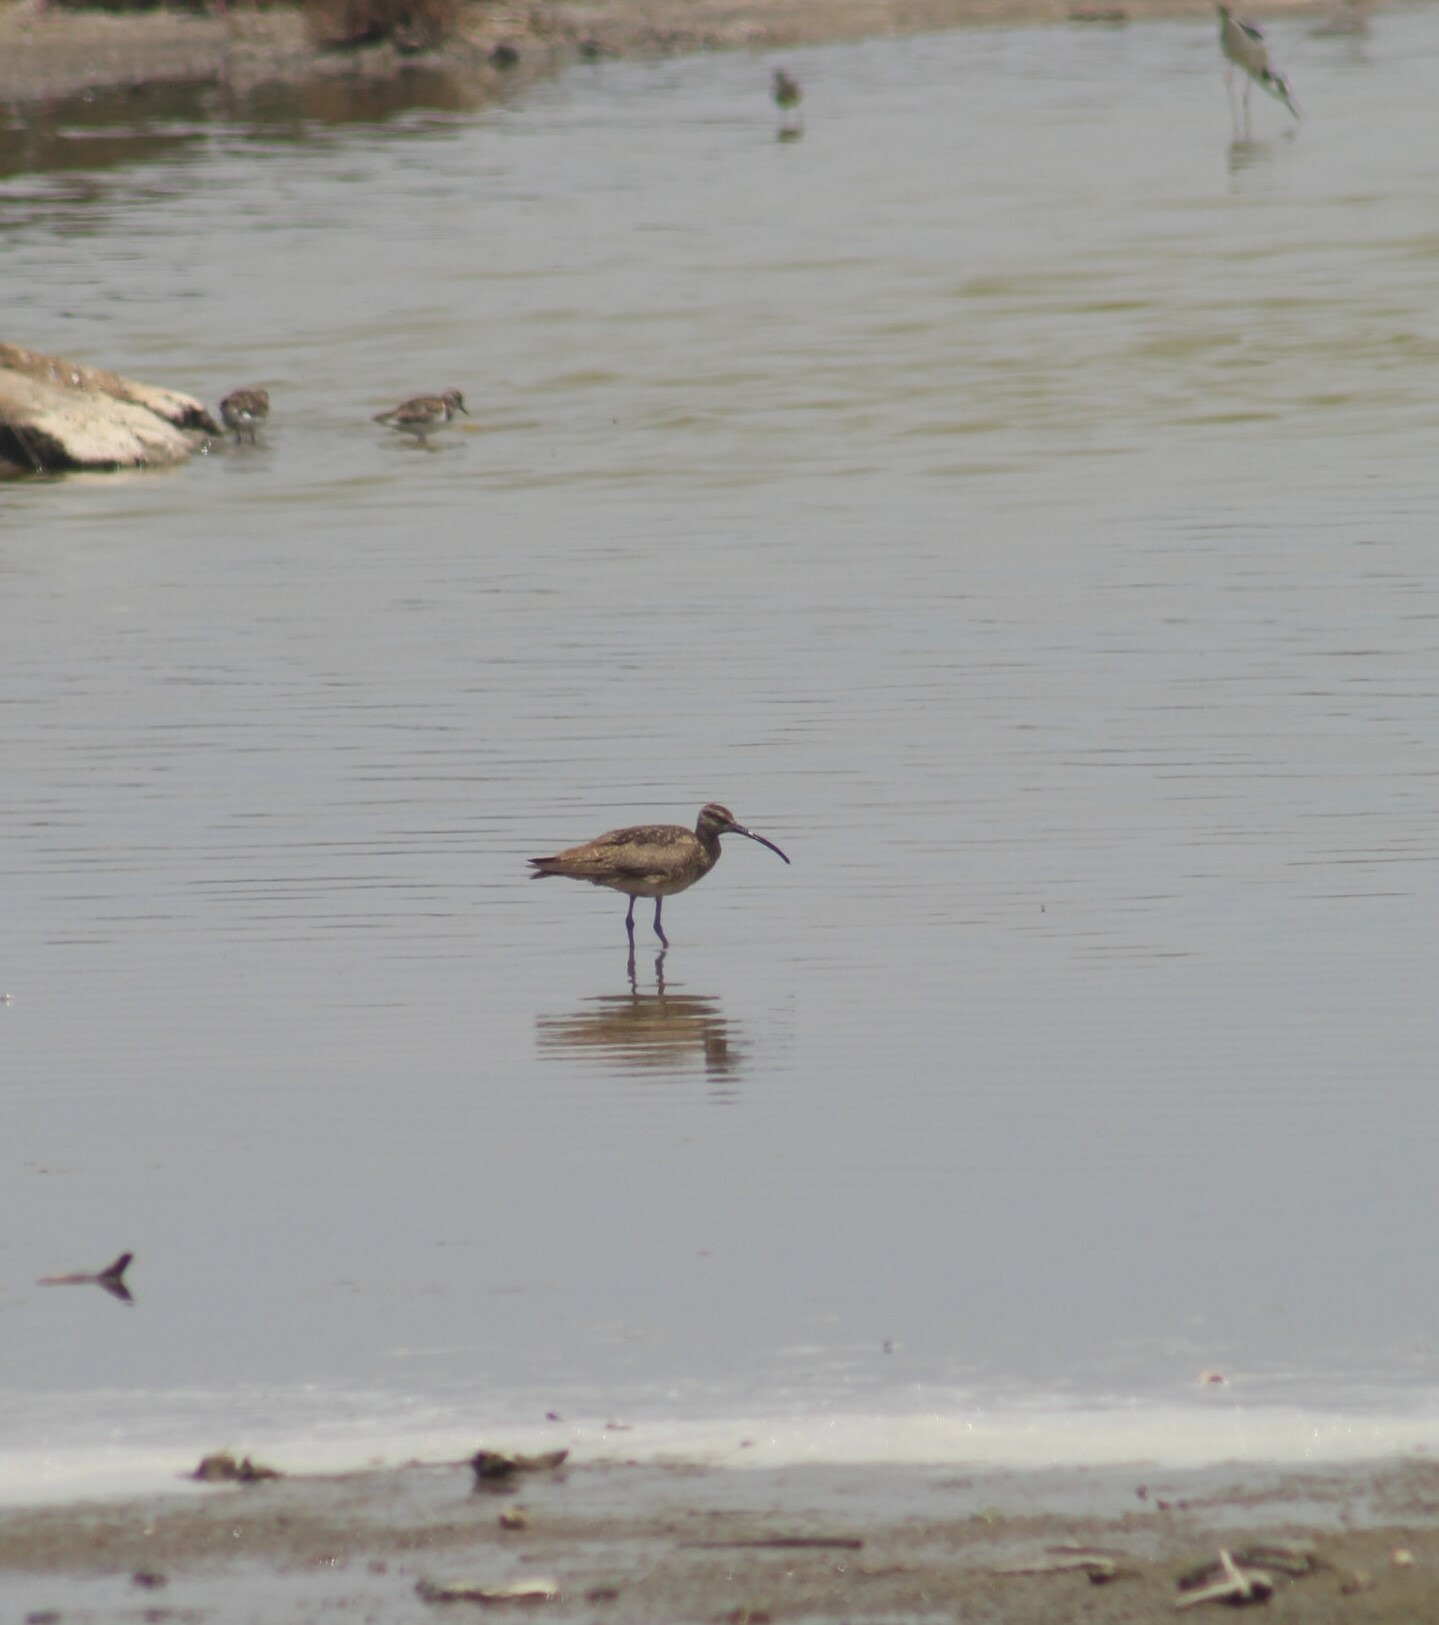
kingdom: Animalia
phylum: Chordata
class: Aves
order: Charadriiformes
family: Scolopacidae
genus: Numenius
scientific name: Numenius phaeopus
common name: Whimbrel
